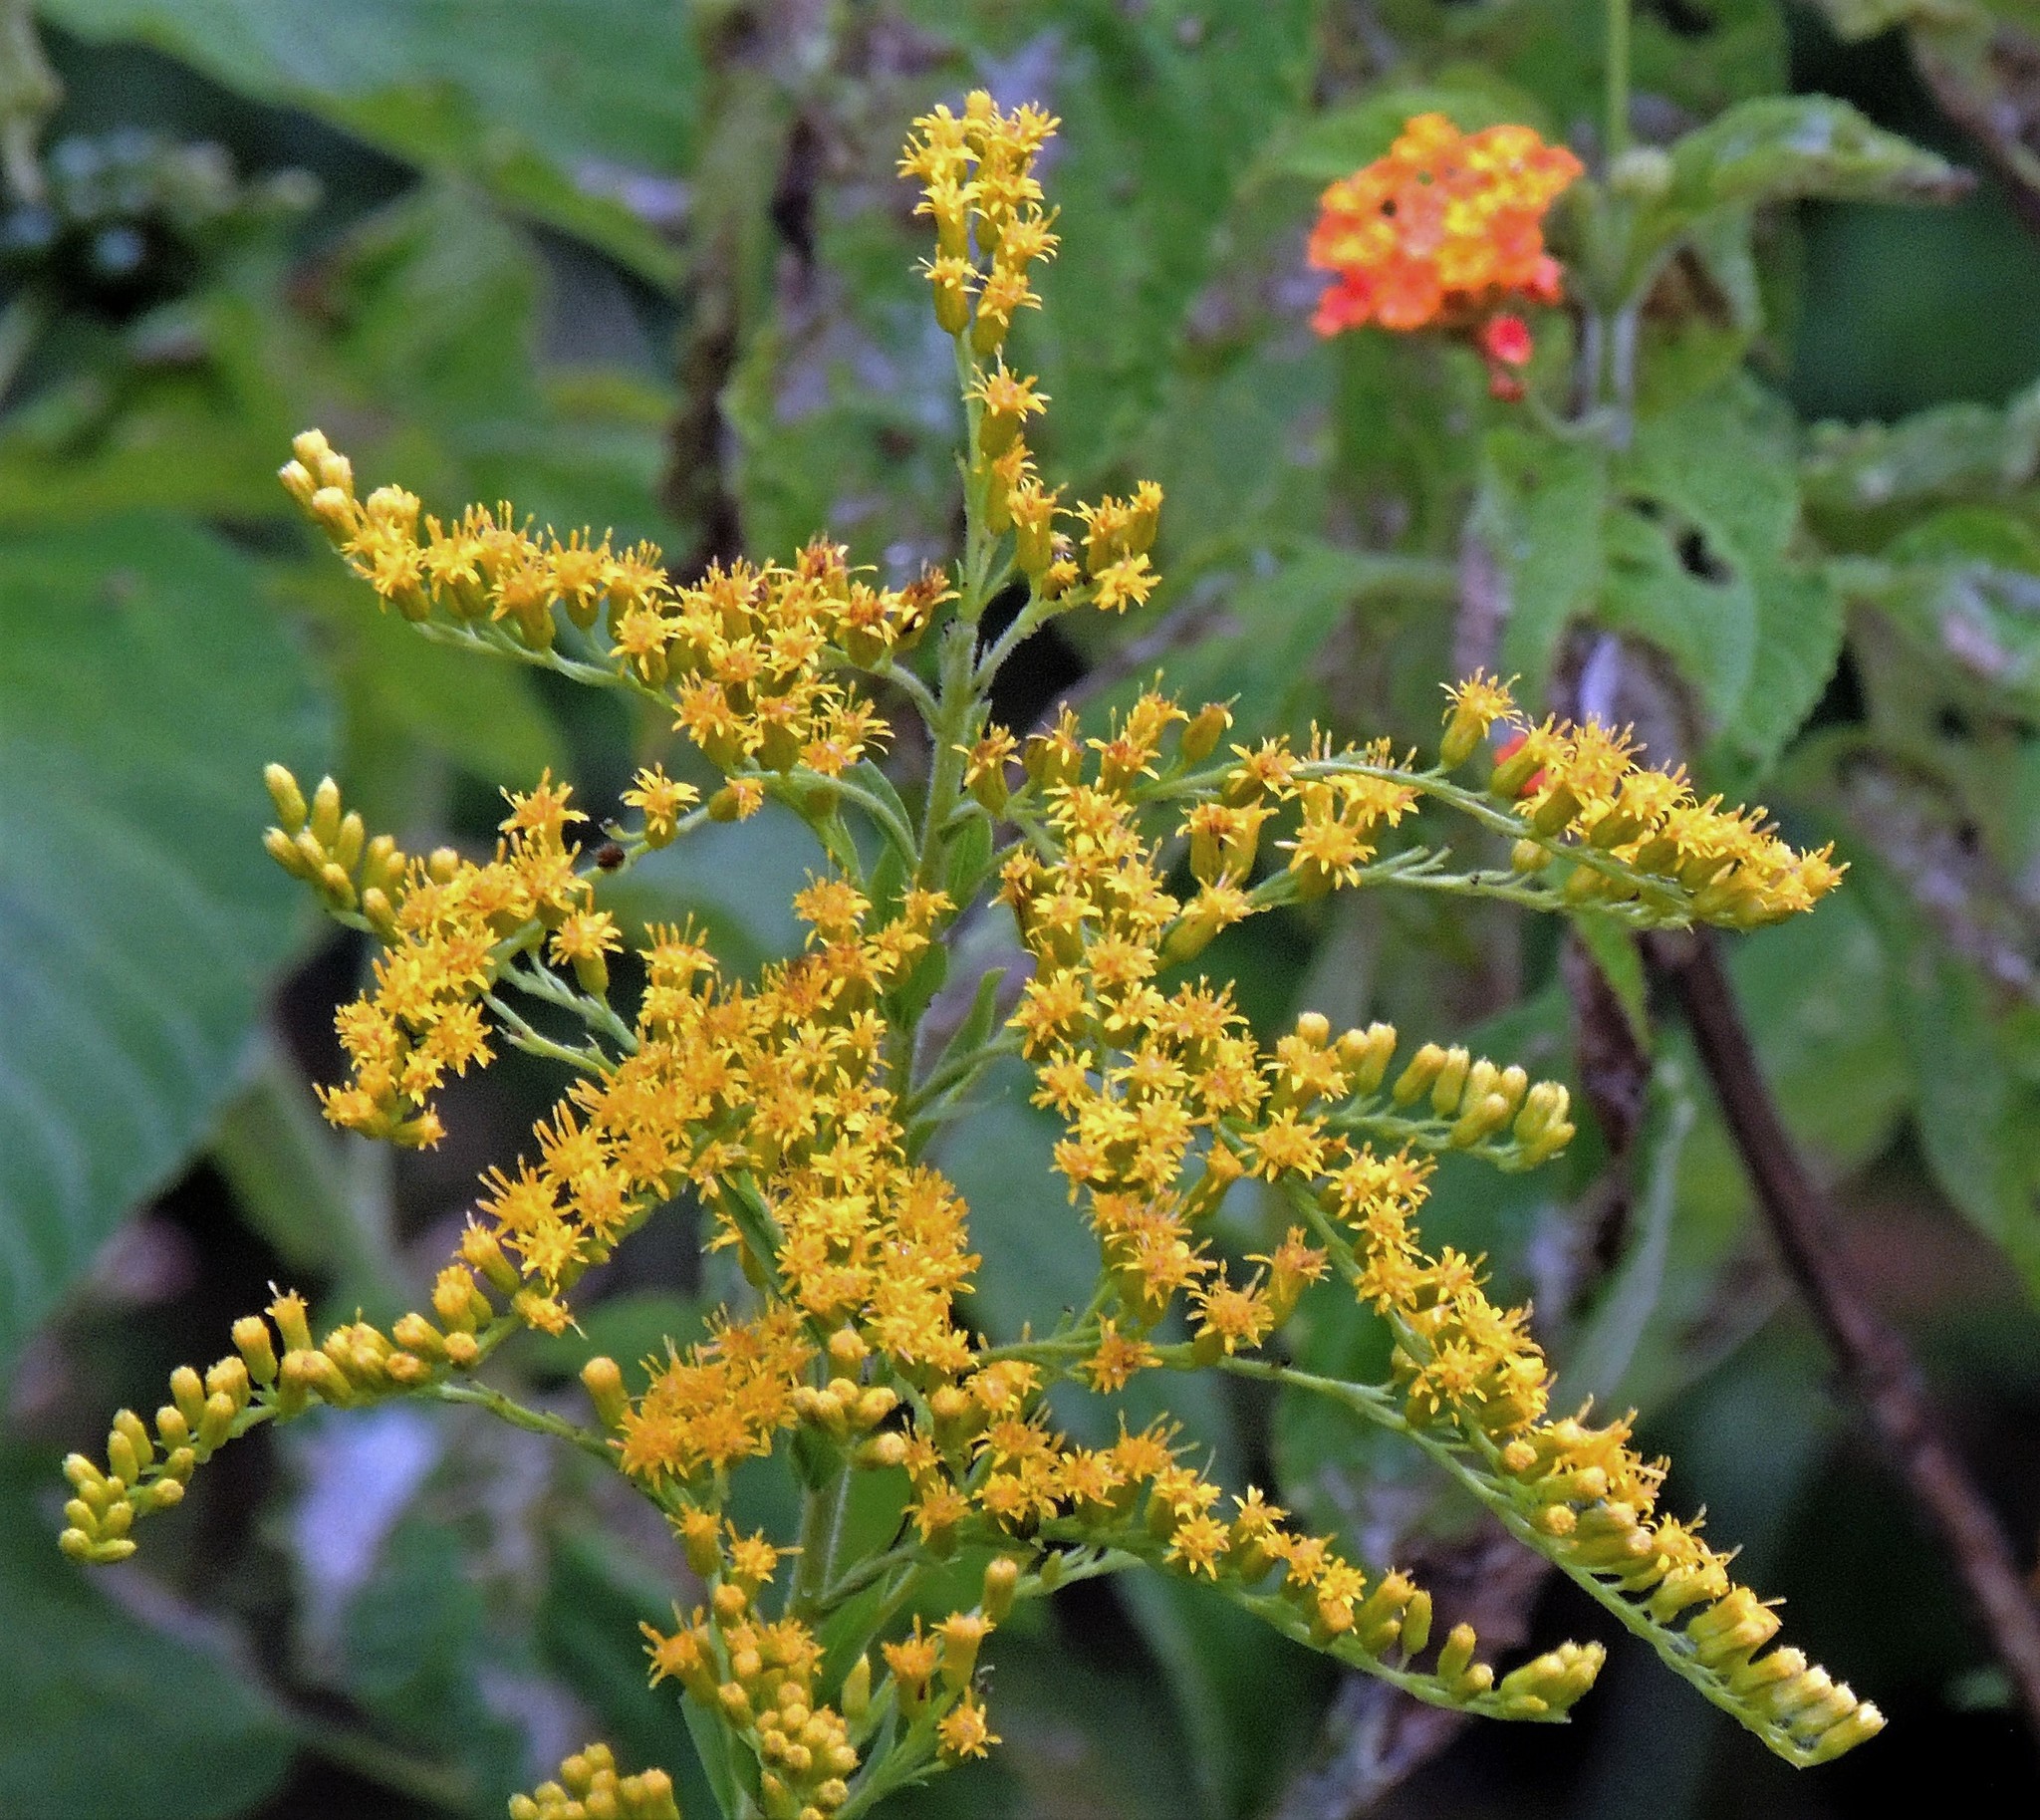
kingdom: Plantae
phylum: Tracheophyta
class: Magnoliopsida
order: Asterales
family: Asteraceae
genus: Solidago
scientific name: Solidago chilensis
